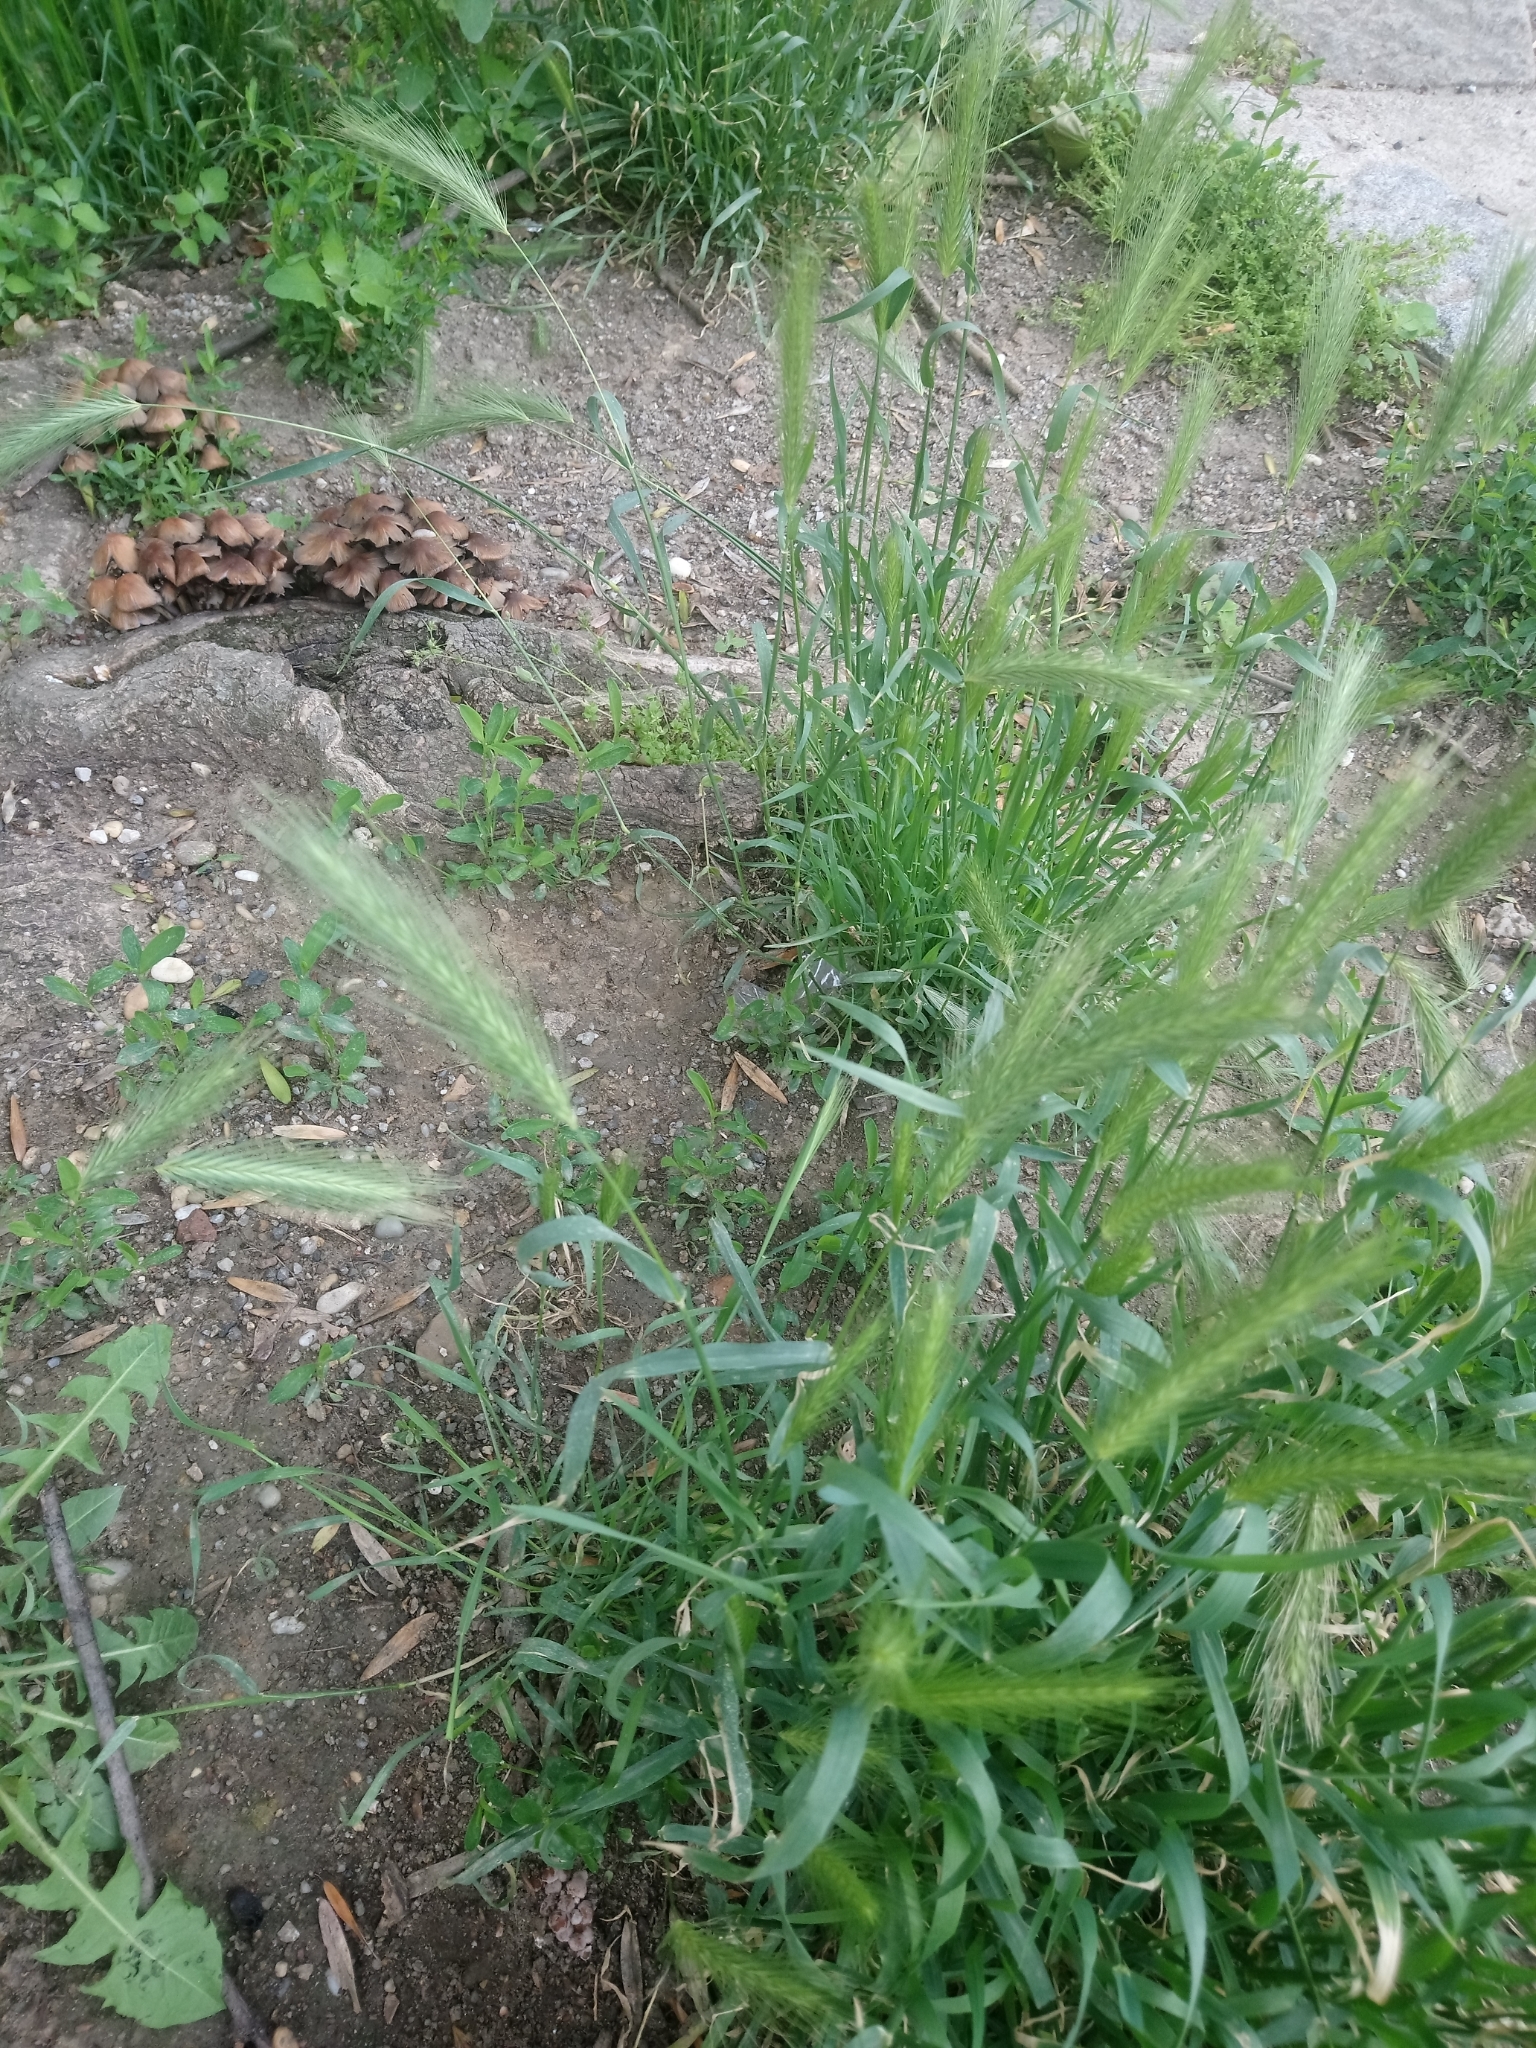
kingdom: Plantae
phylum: Tracheophyta
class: Liliopsida
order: Poales
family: Poaceae
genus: Hordeum
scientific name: Hordeum murinum
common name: Wall barley
